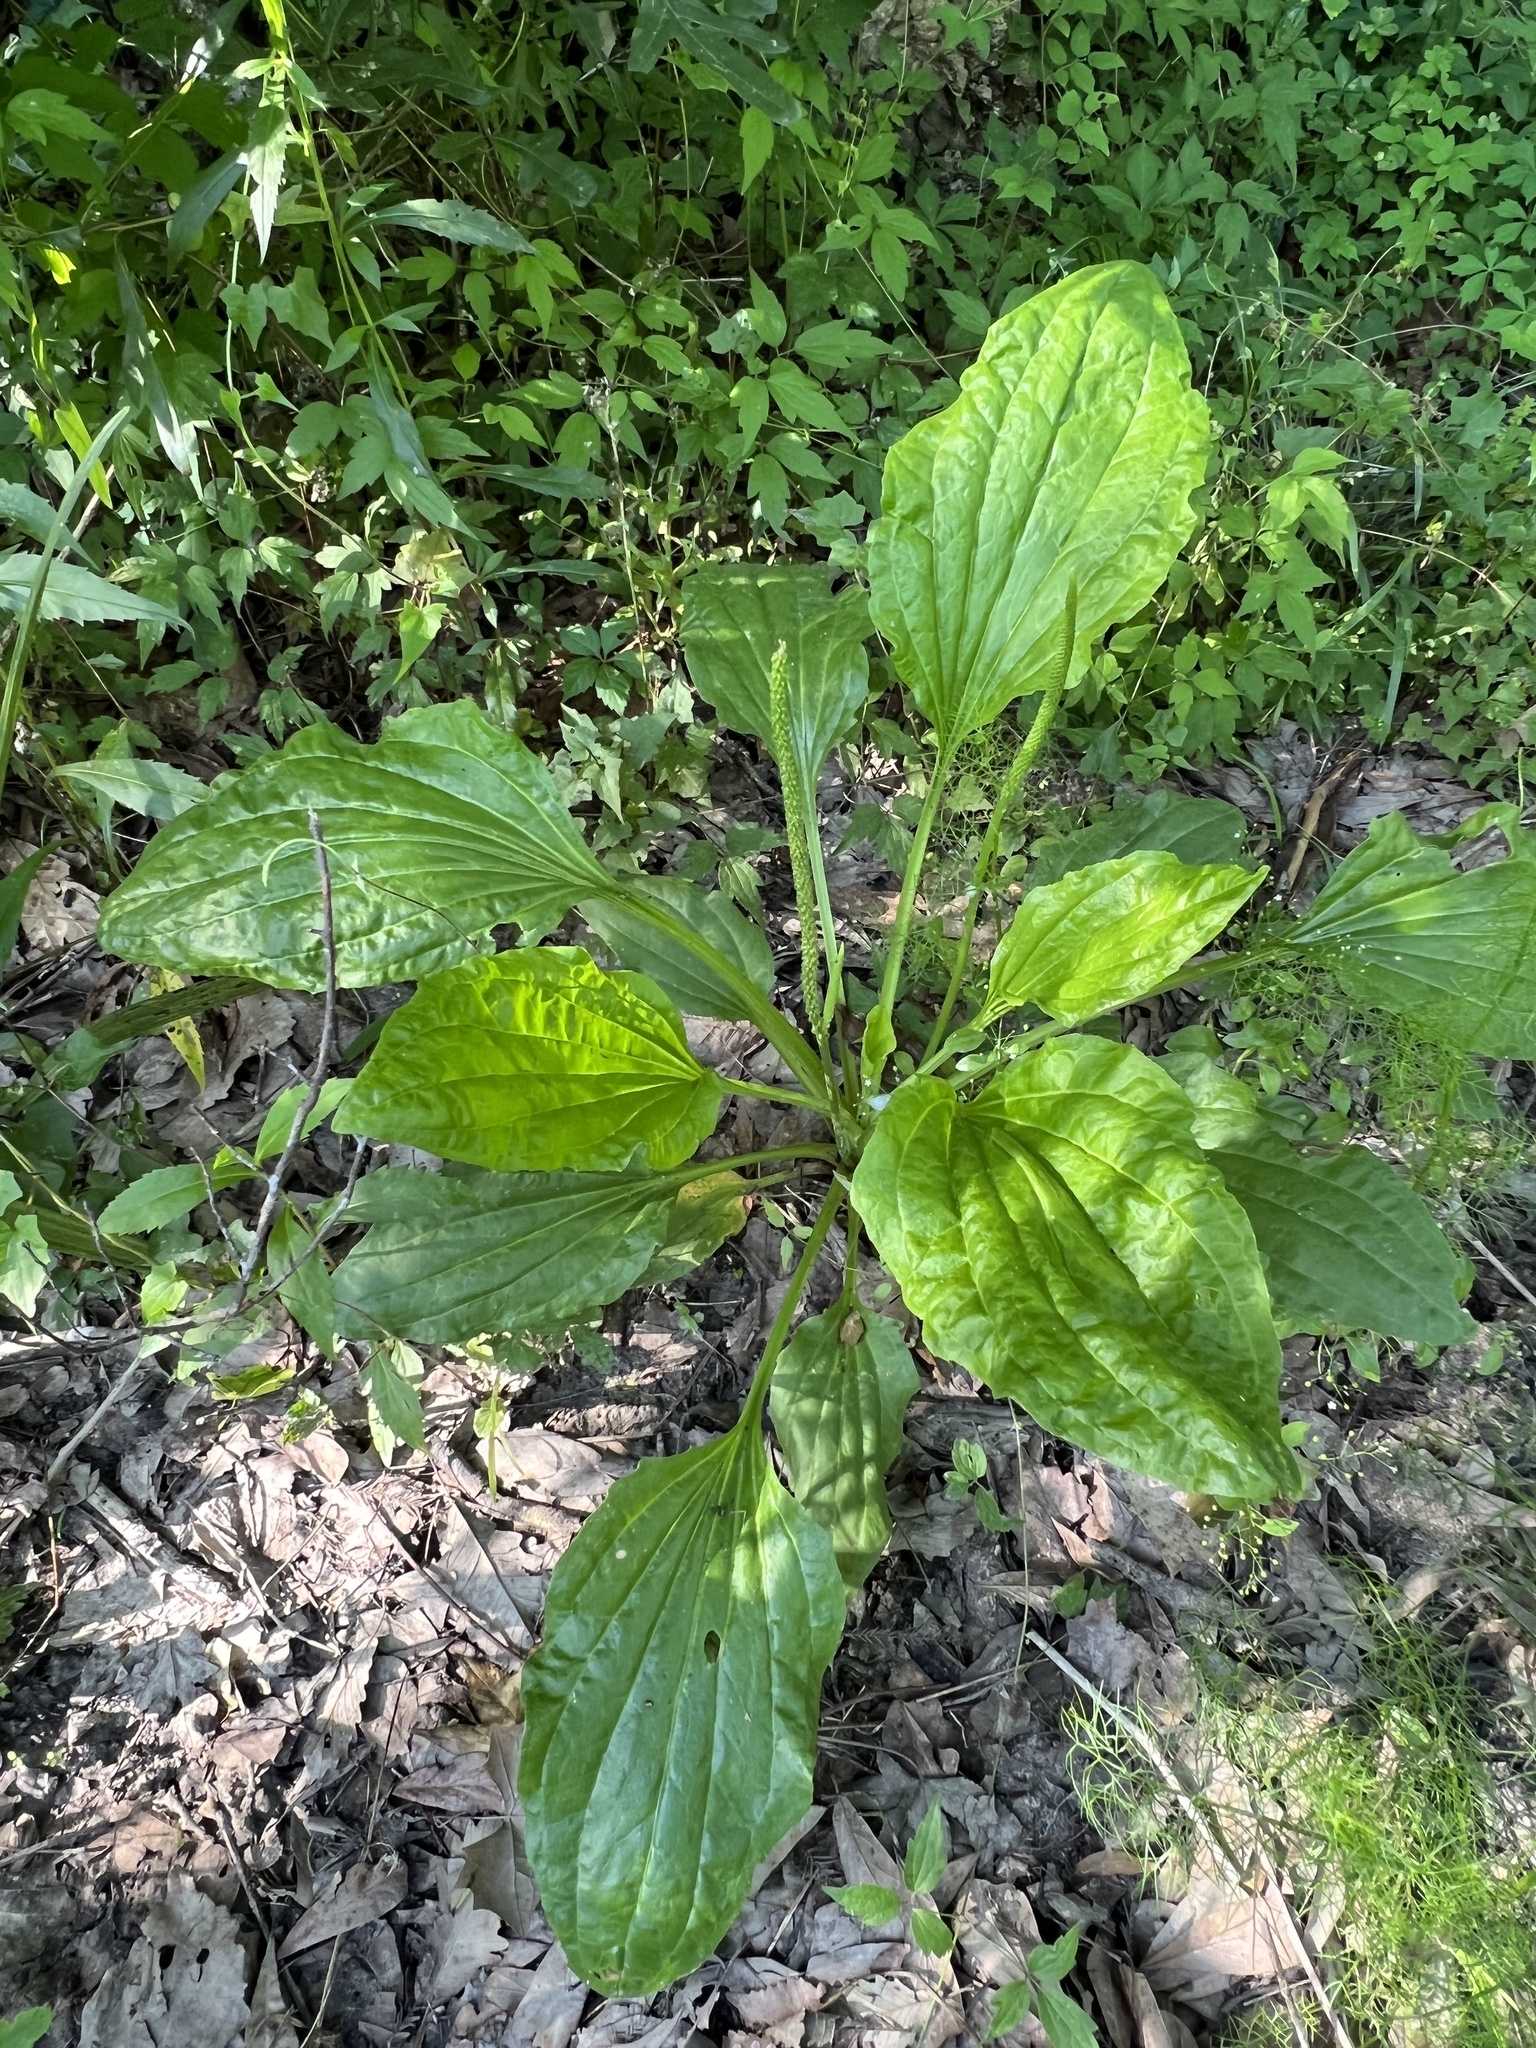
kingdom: Plantae
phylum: Tracheophyta
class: Magnoliopsida
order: Lamiales
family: Plantaginaceae
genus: Plantago
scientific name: Plantago major
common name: Common plantain
